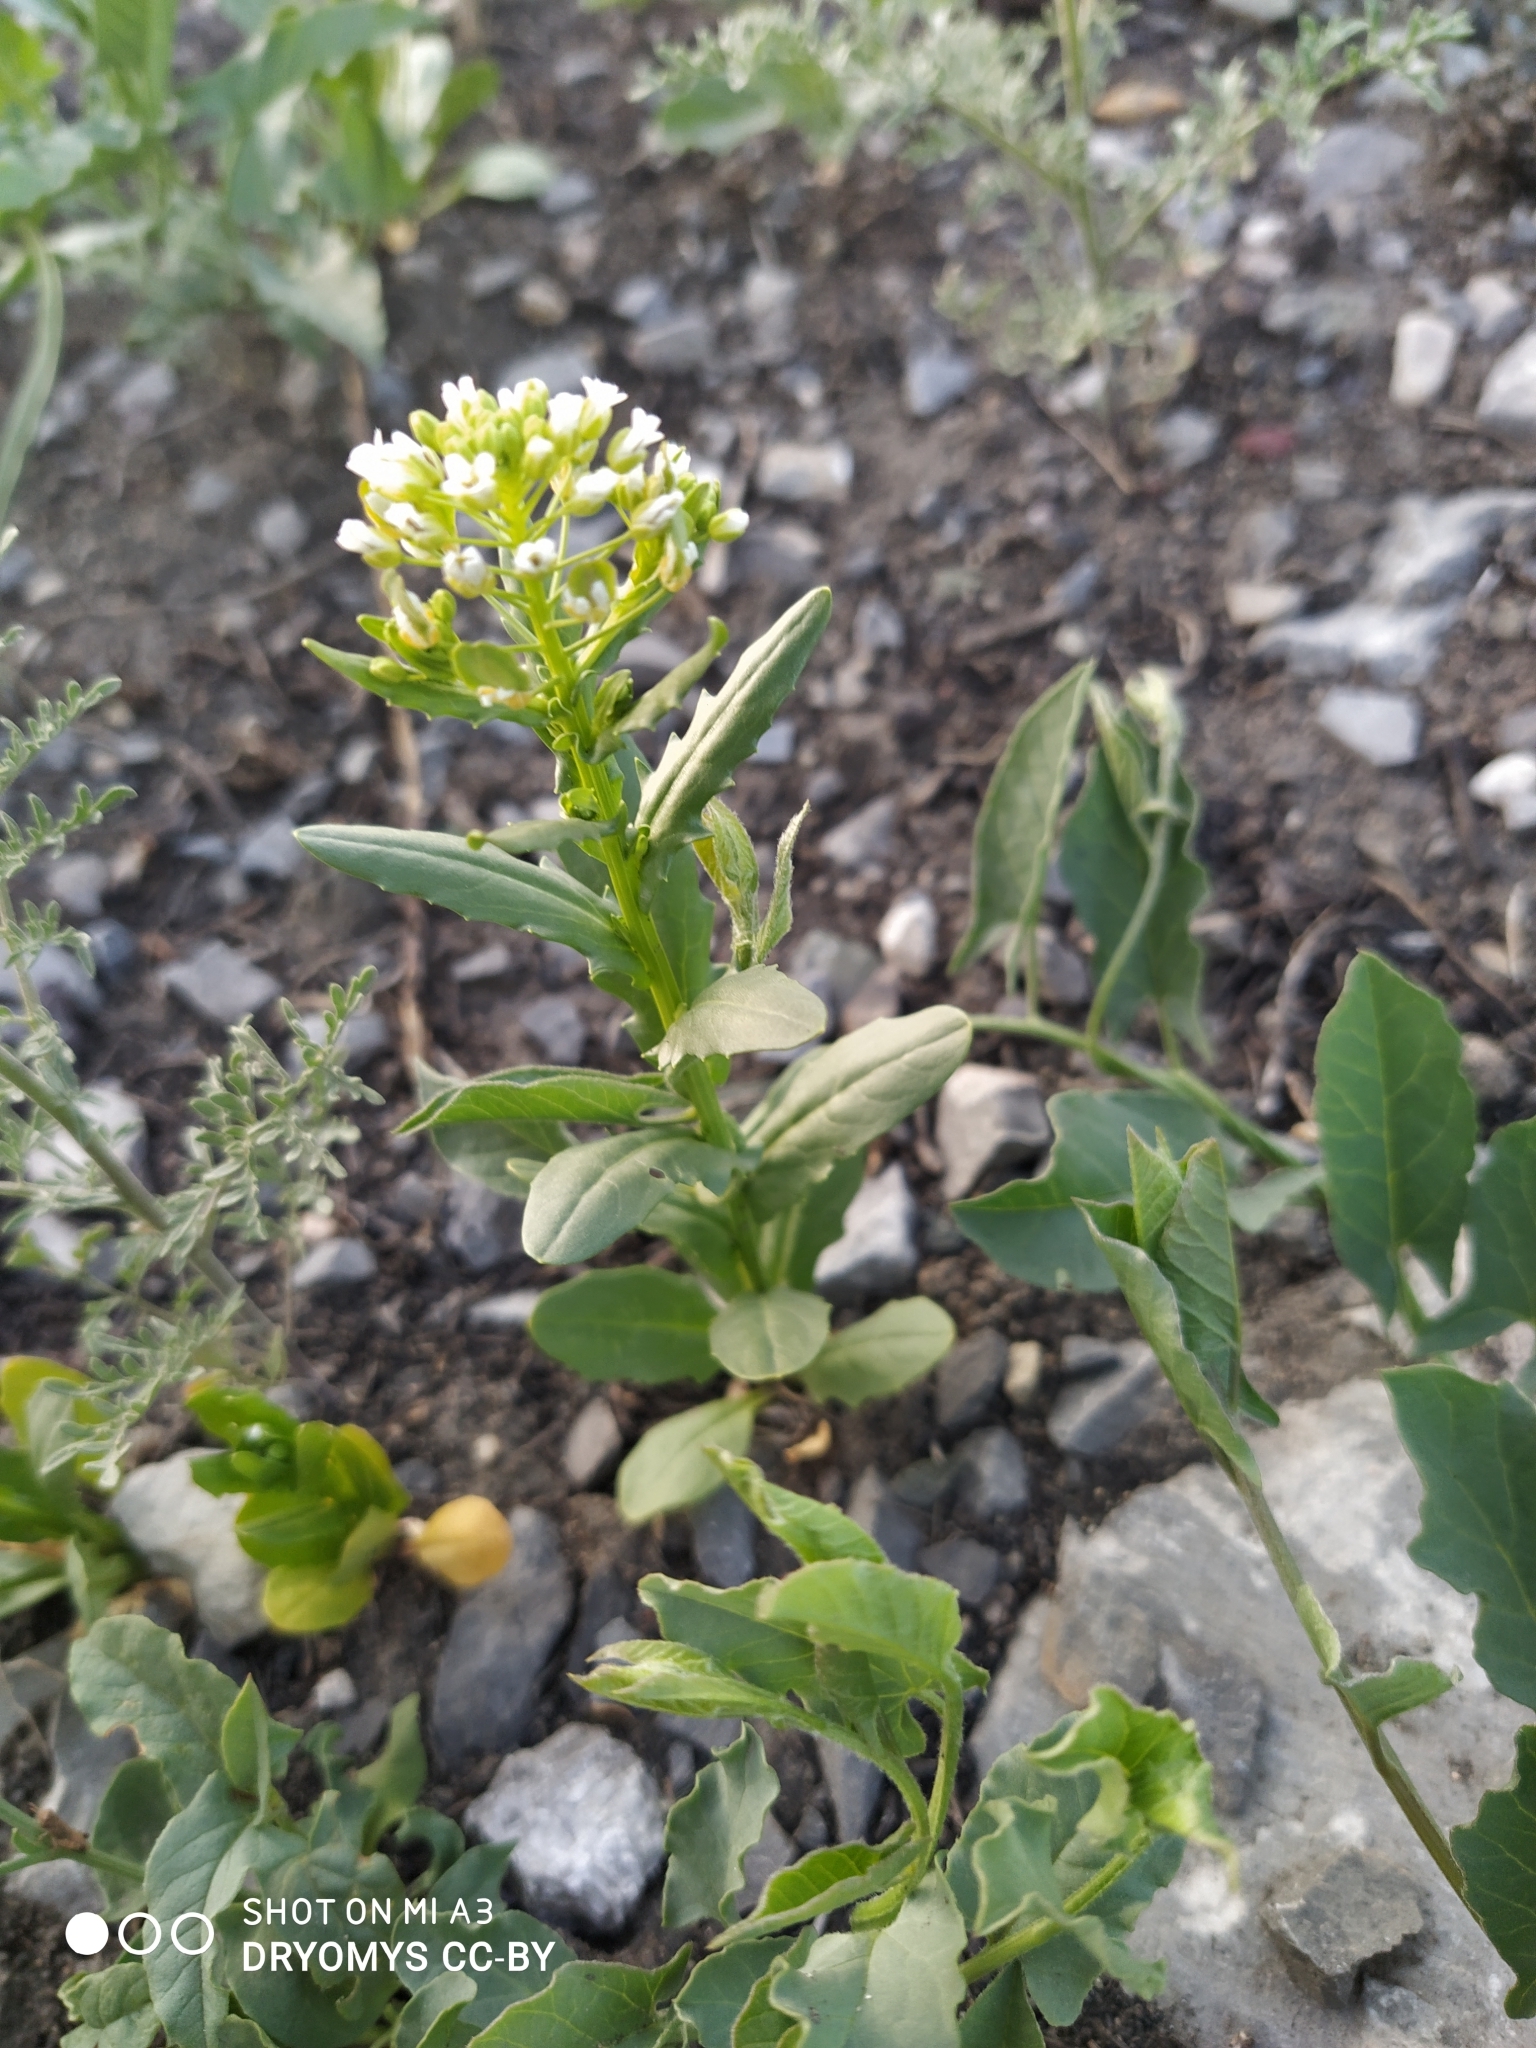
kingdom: Plantae
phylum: Tracheophyta
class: Magnoliopsida
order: Brassicales
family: Brassicaceae
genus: Thlaspi
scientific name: Thlaspi arvense
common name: Field pennycress
